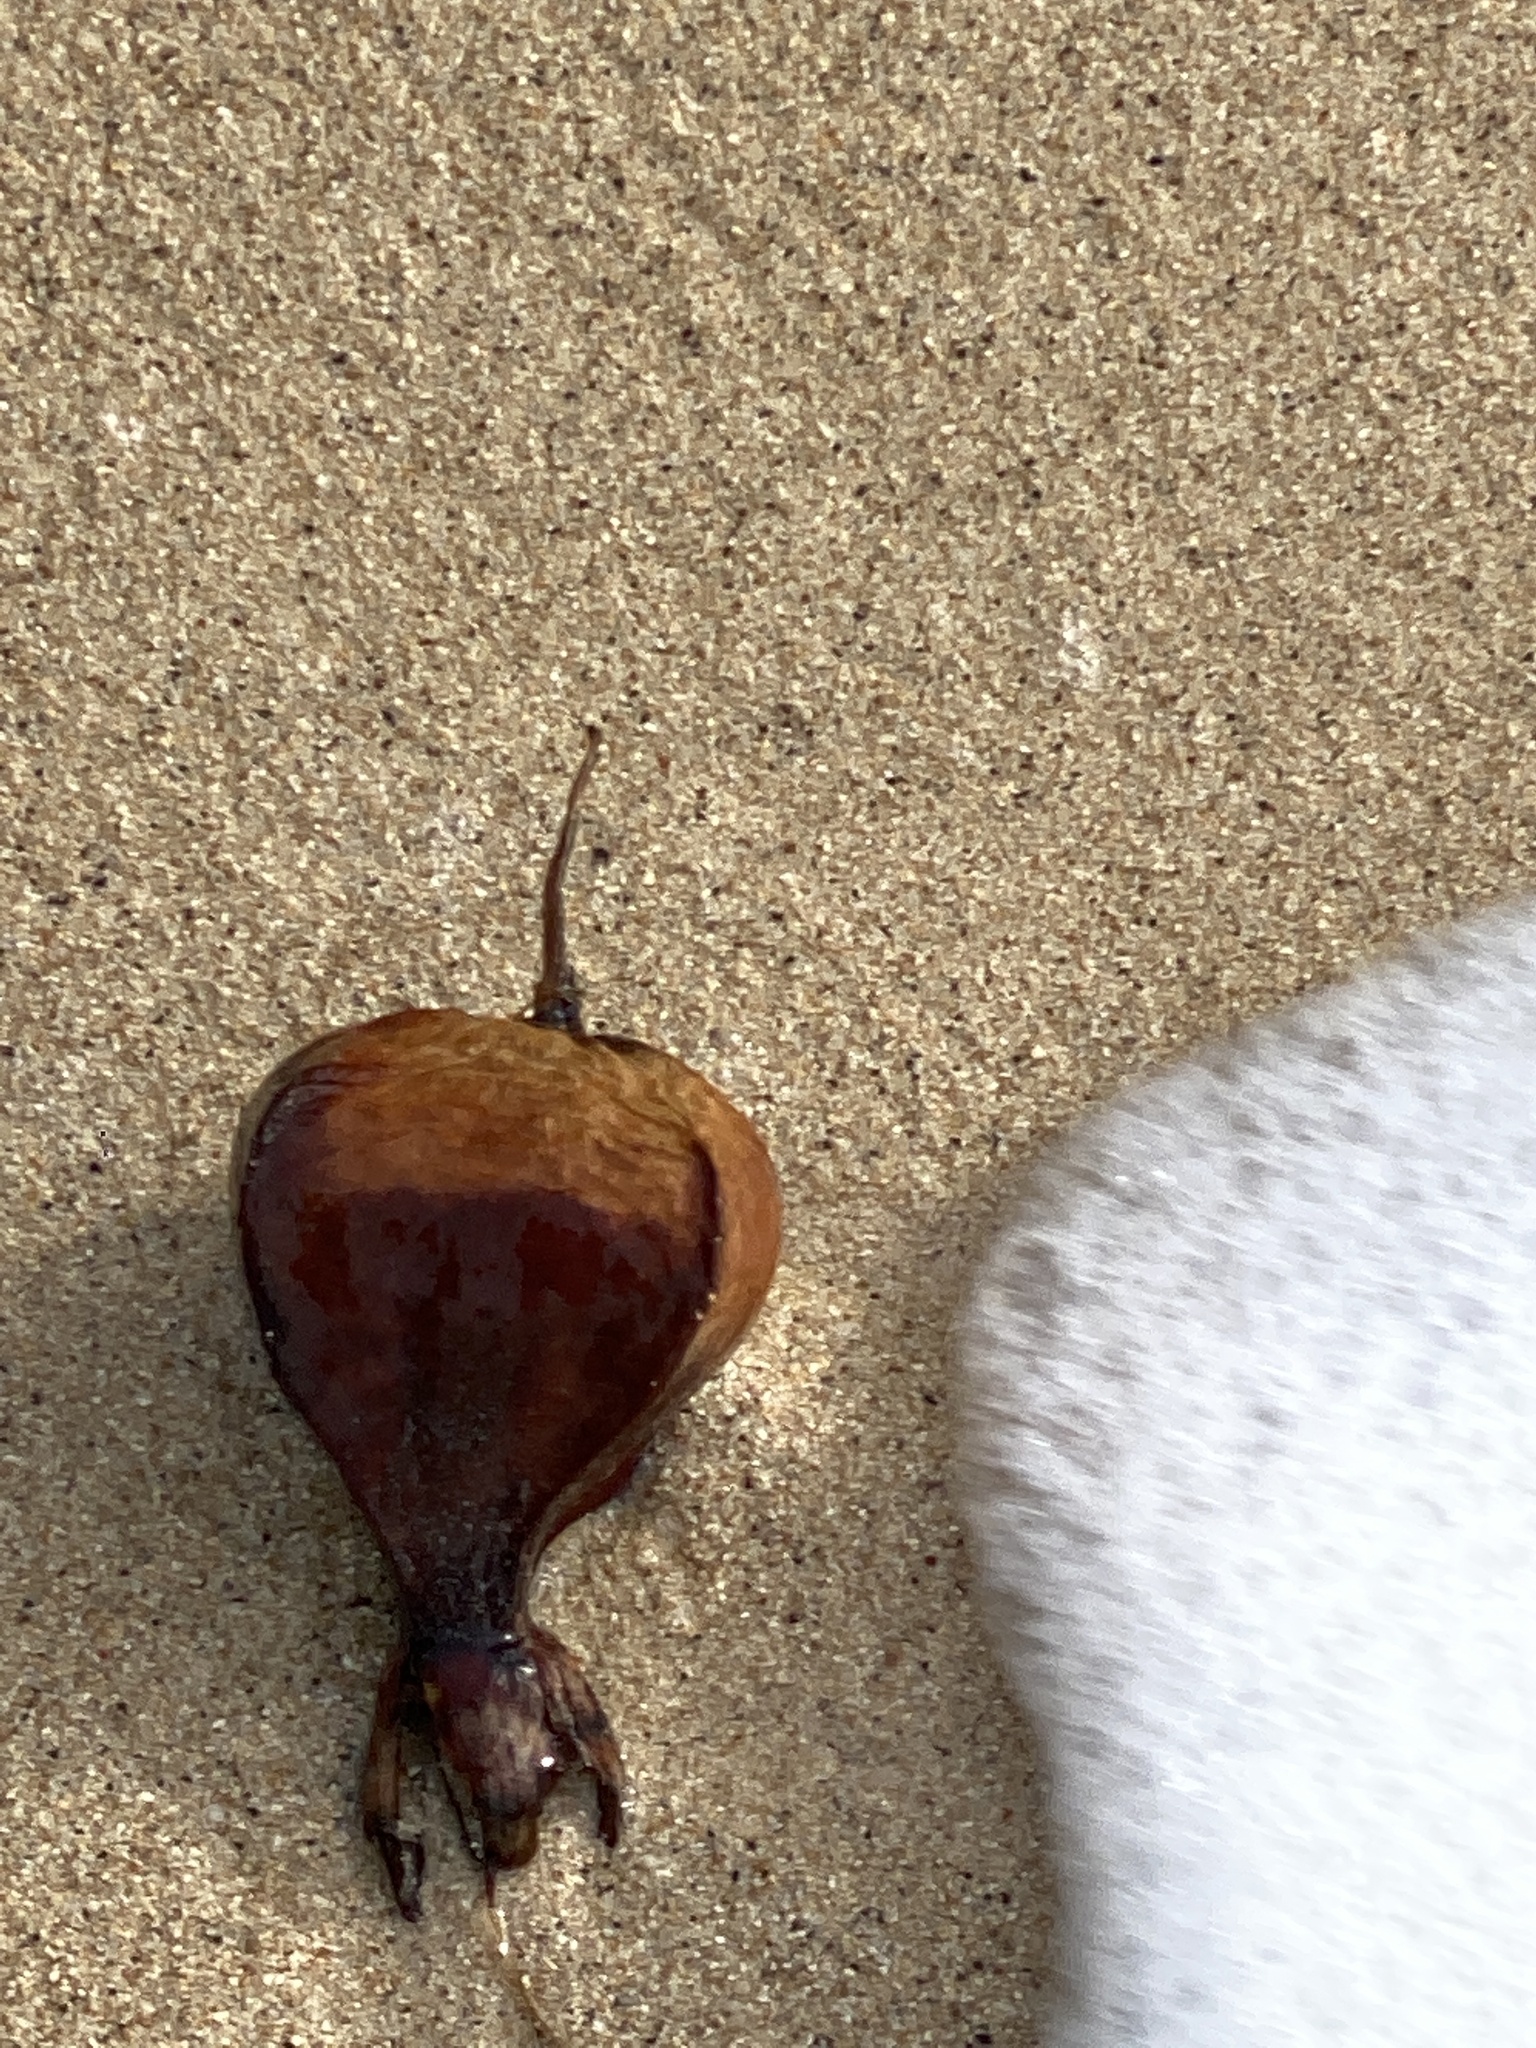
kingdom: Plantae
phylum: Tracheophyta
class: Magnoliopsida
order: Ericales
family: Lecythidaceae
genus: Barringtonia
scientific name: Barringtonia asiatica
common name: Mango-pine
